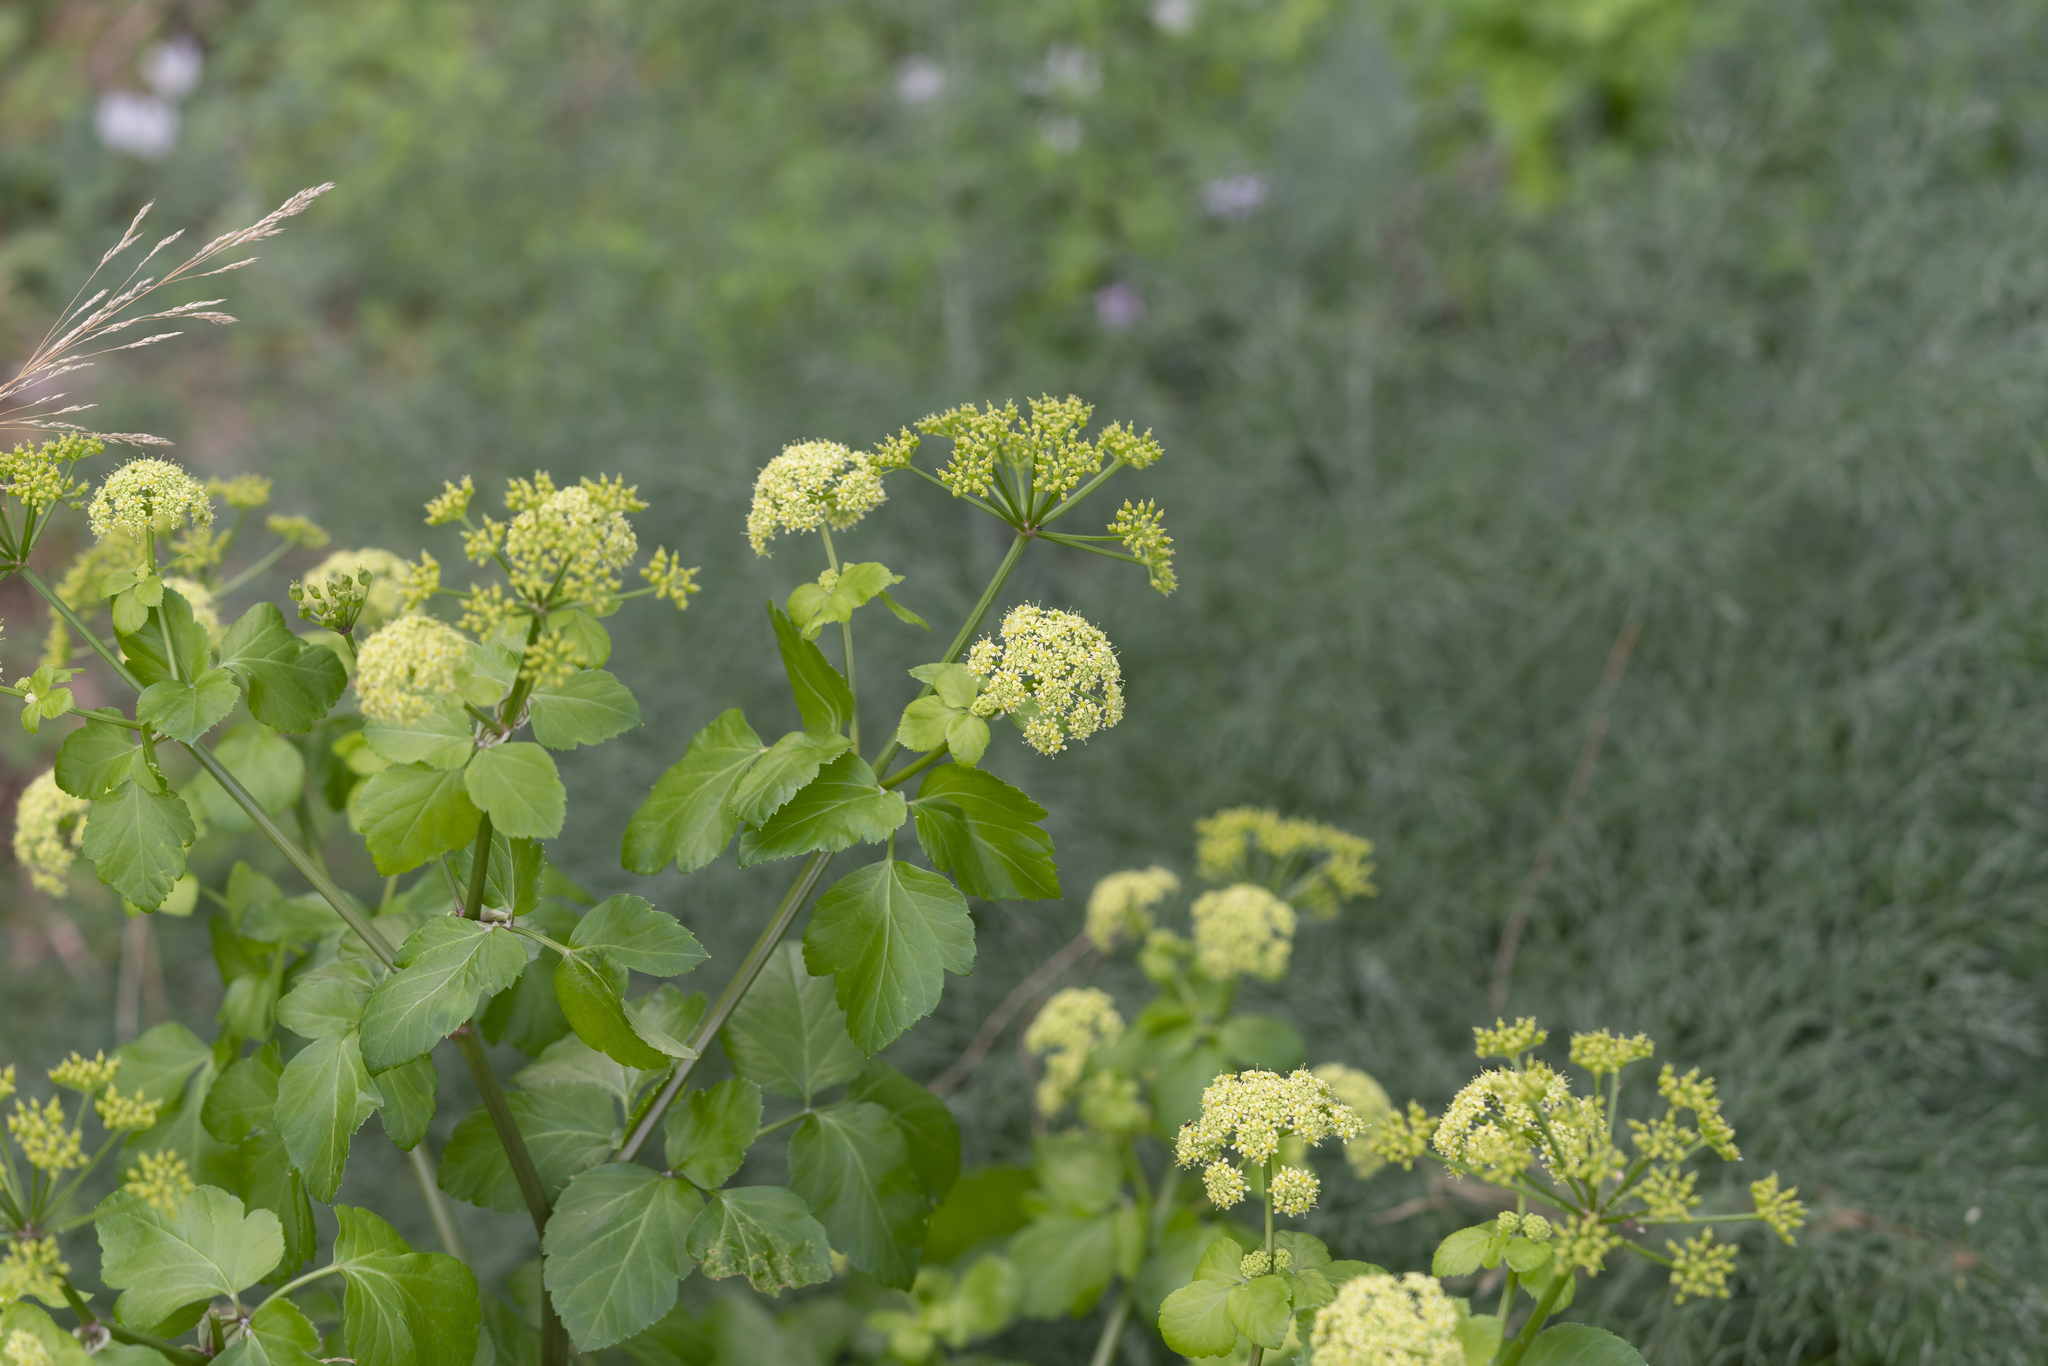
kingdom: Plantae
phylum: Tracheophyta
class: Magnoliopsida
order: Apiales
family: Apiaceae
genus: Smyrnium
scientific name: Smyrnium olusatrum
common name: Alexanders
